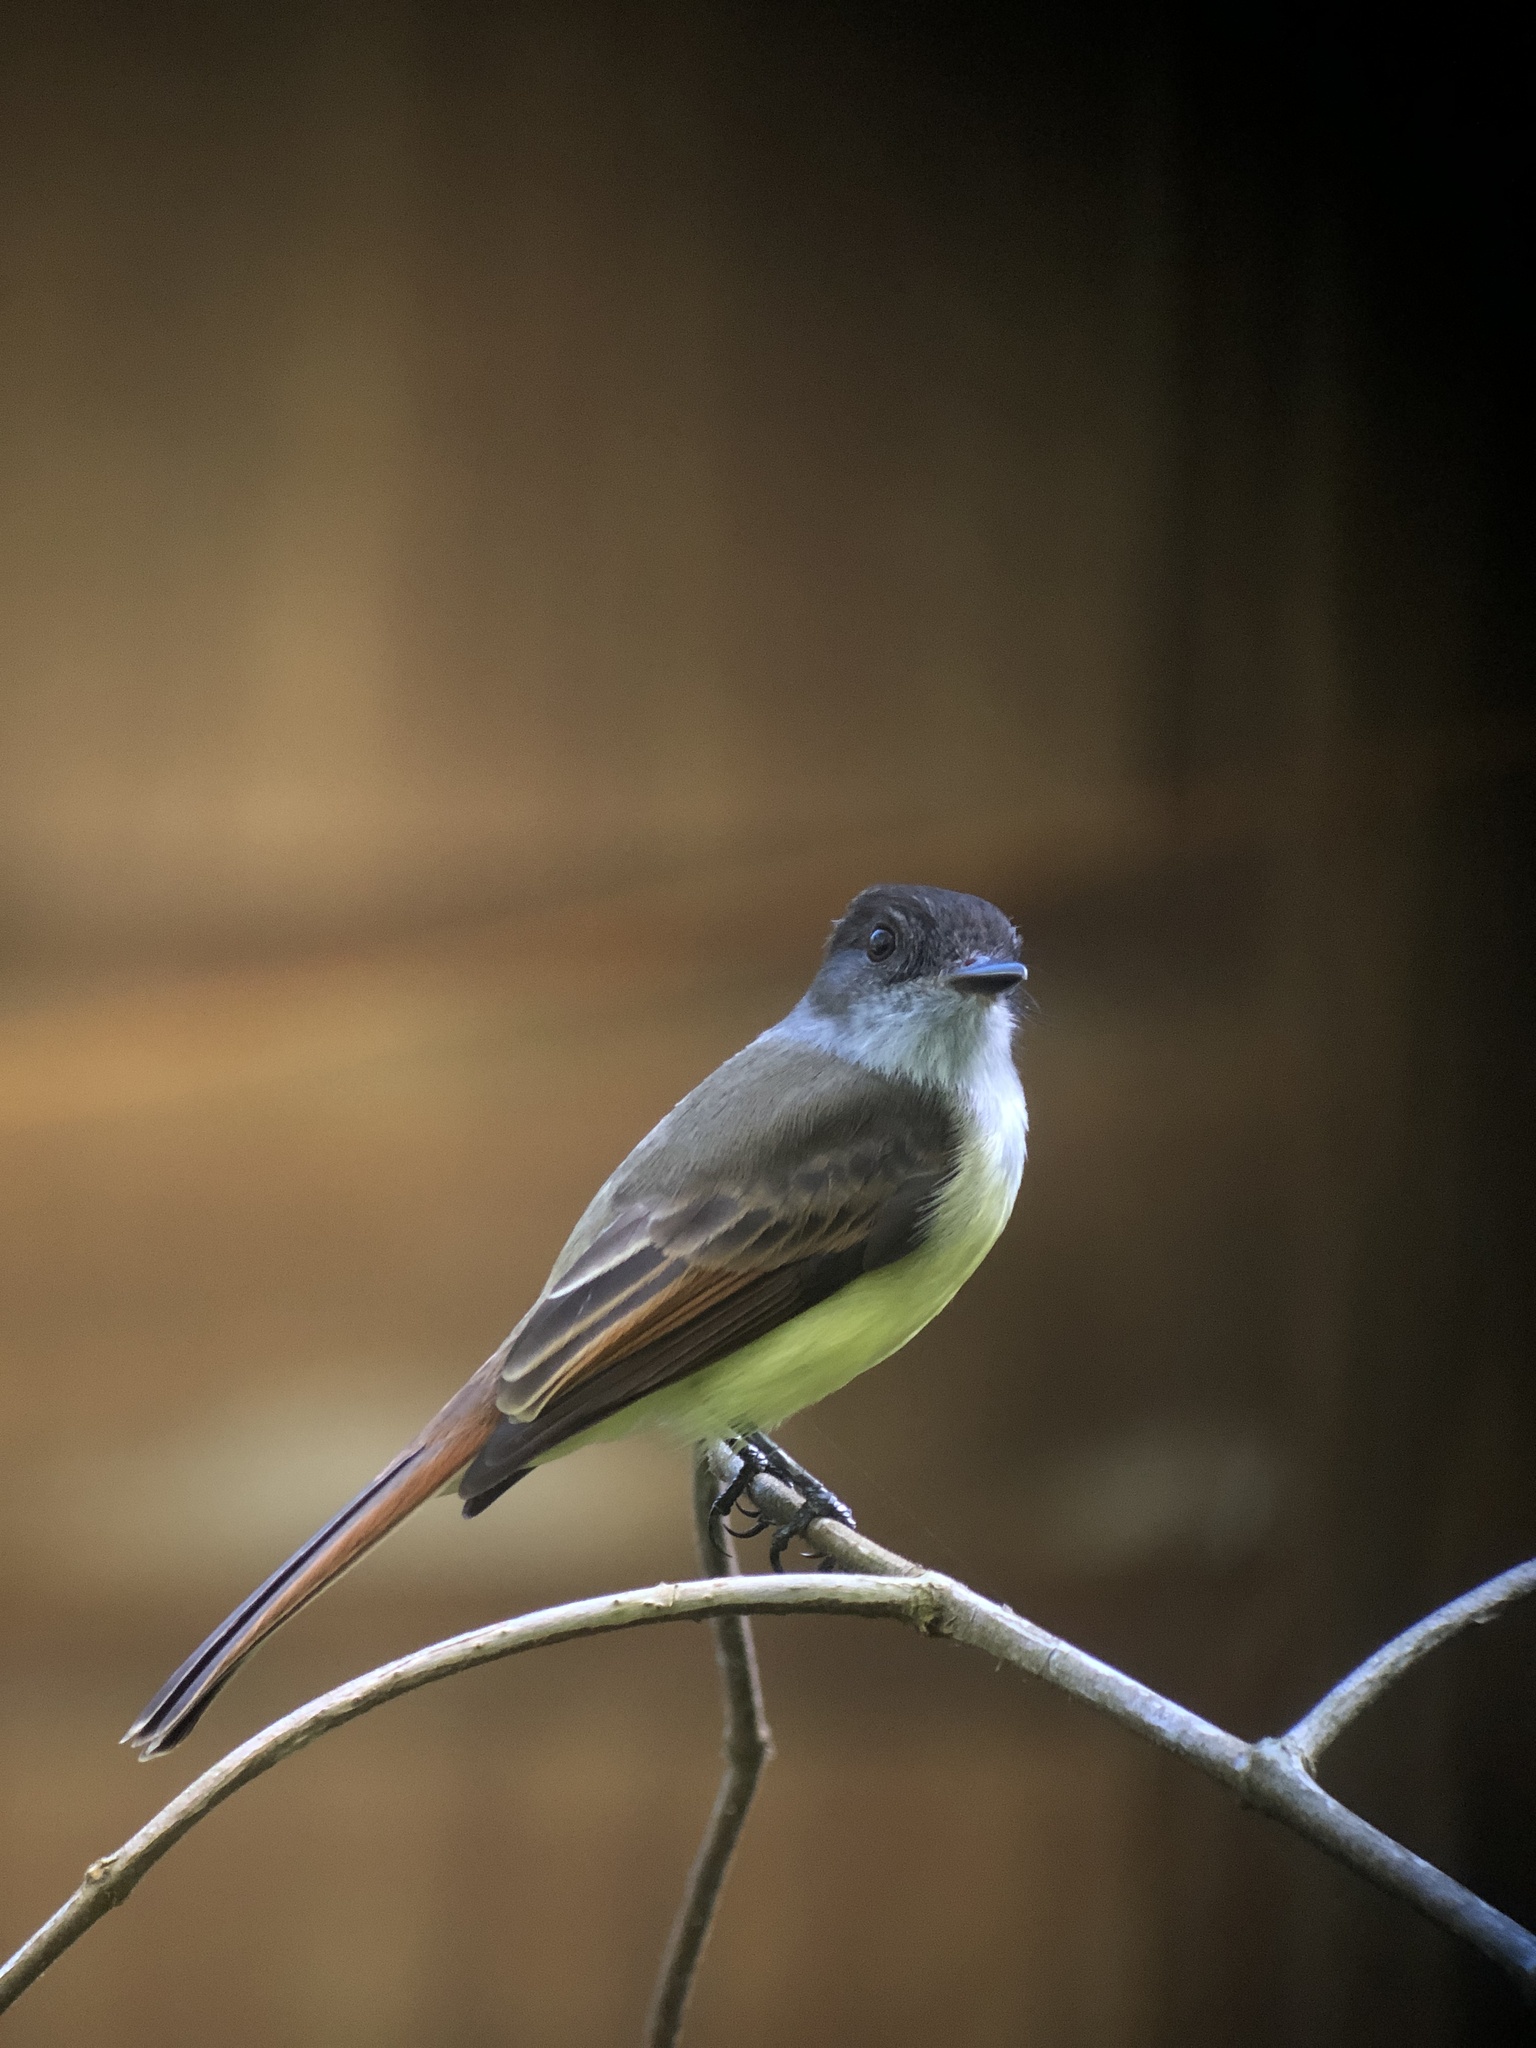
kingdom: Animalia
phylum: Chordata
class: Aves
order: Passeriformes
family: Tyrannidae
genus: Myiarchus
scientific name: Myiarchus tuberculifer
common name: Dusky-capped flycatcher
